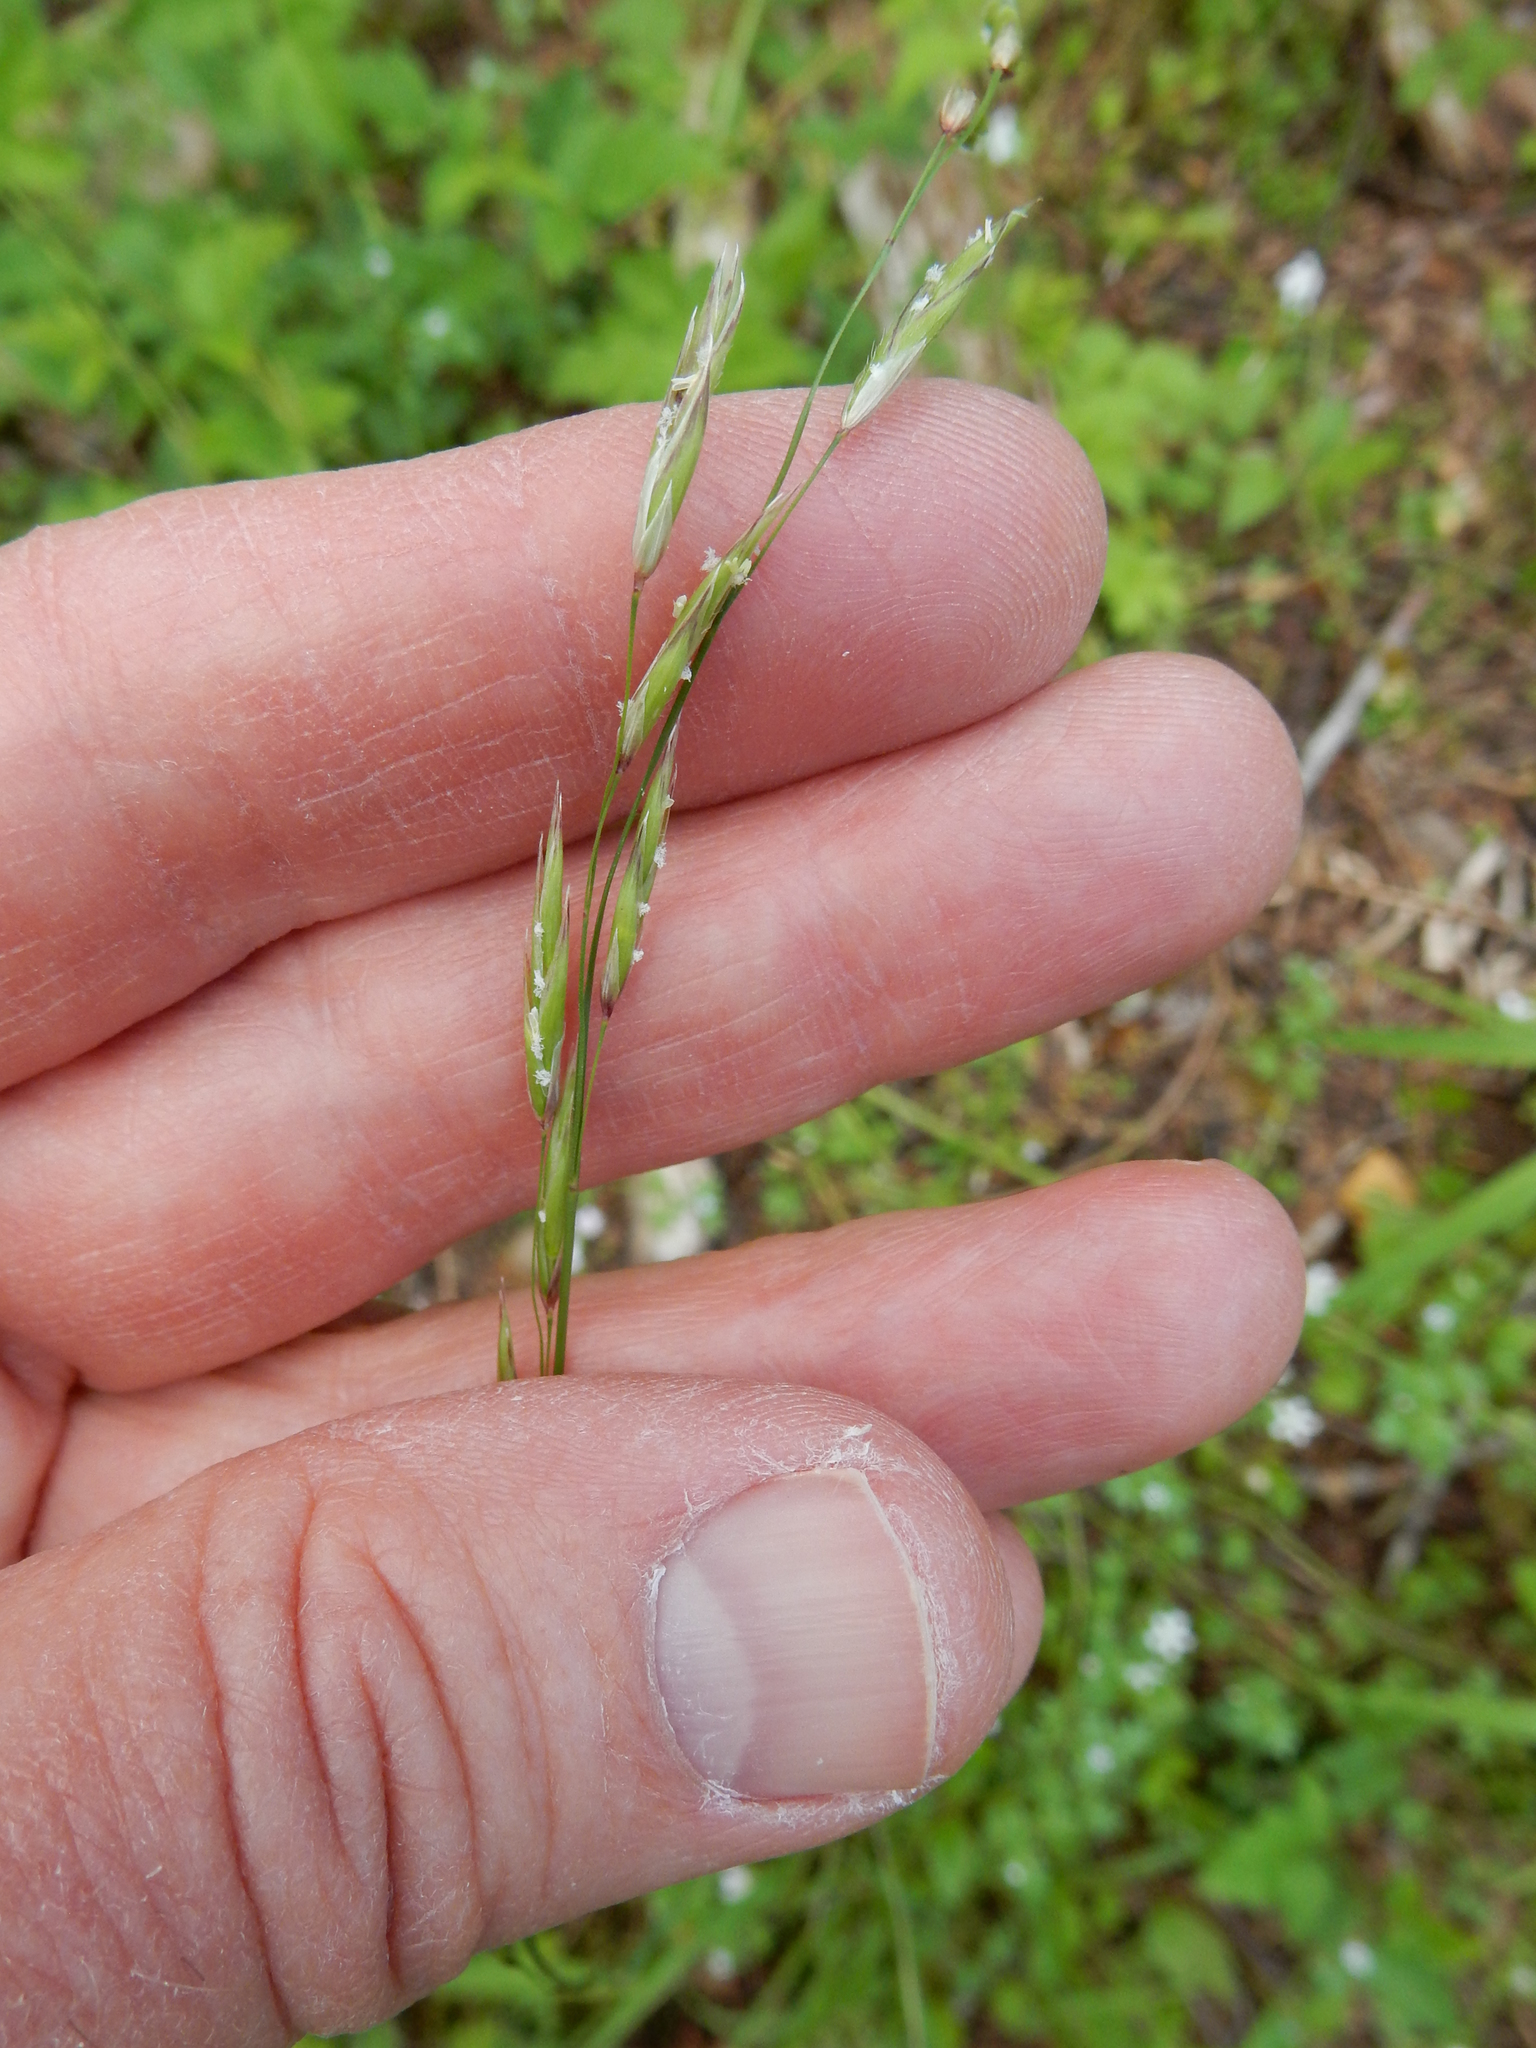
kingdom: Plantae
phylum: Tracheophyta
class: Liliopsida
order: Poales
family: Poaceae
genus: Melica
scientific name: Melica subulata
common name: Tapered oniongrass
